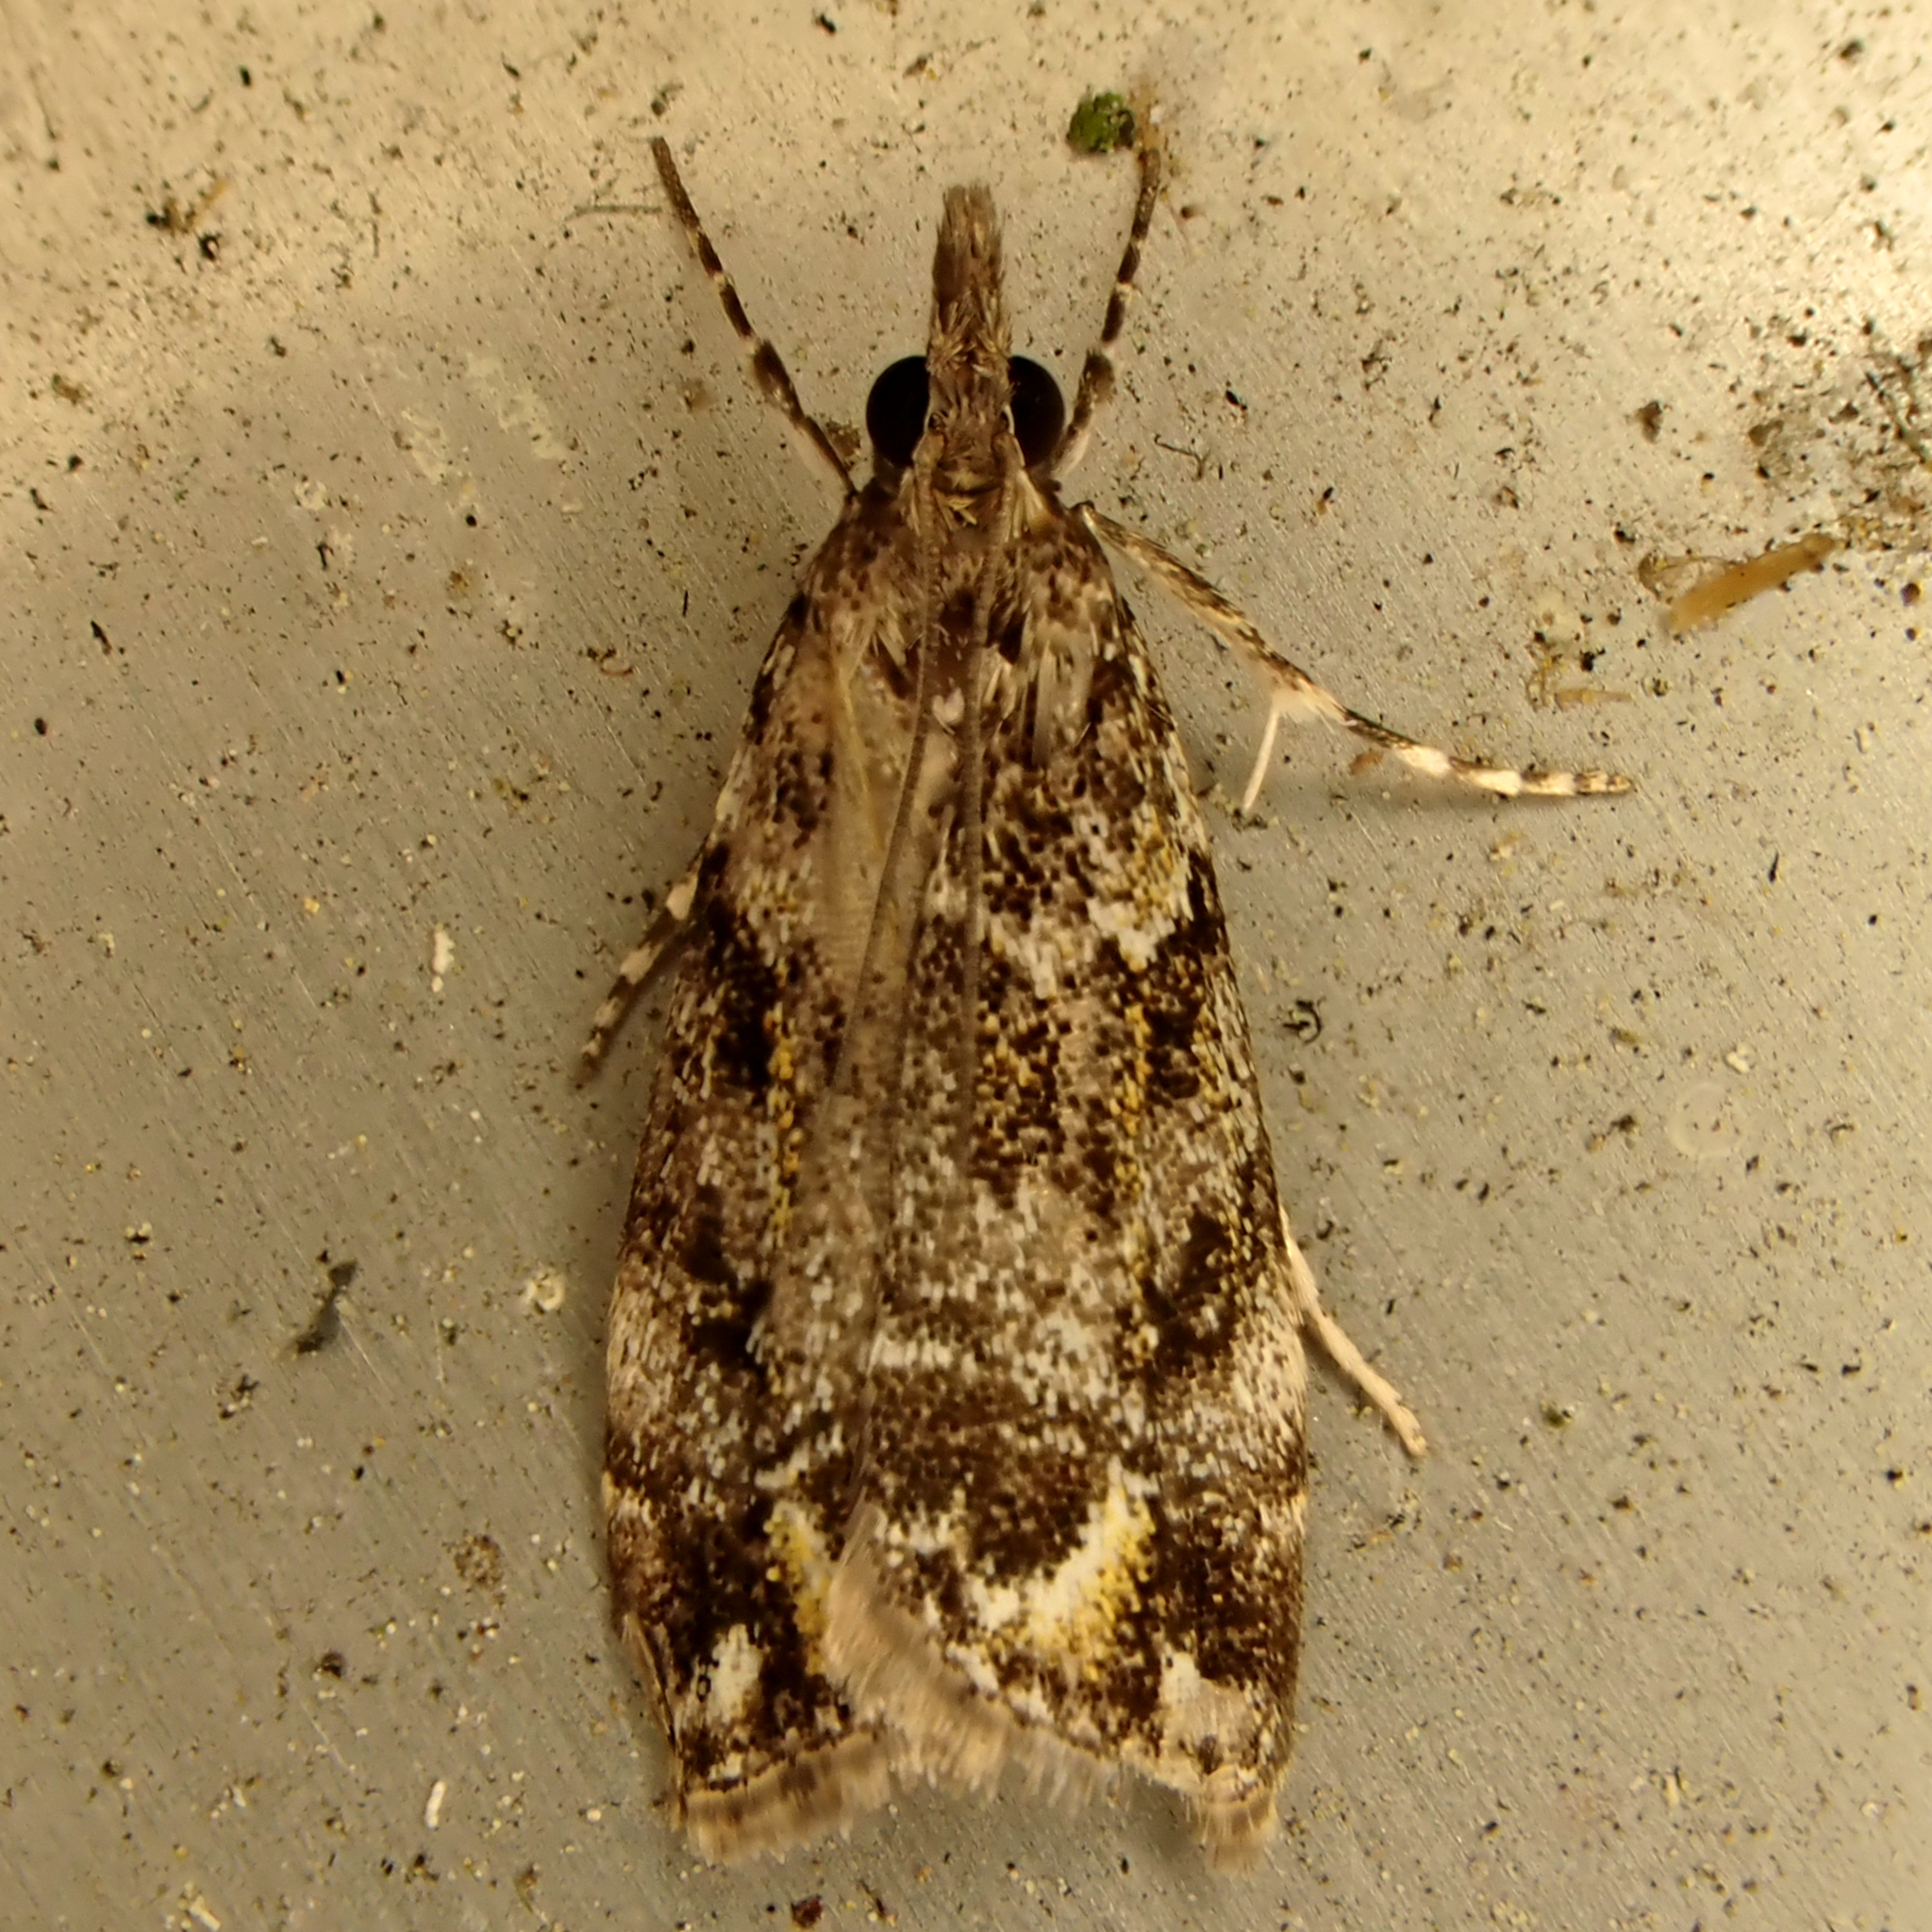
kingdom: Animalia
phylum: Arthropoda
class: Insecta
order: Lepidoptera
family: Crambidae
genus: Eudonia
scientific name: Eudonia minualis
